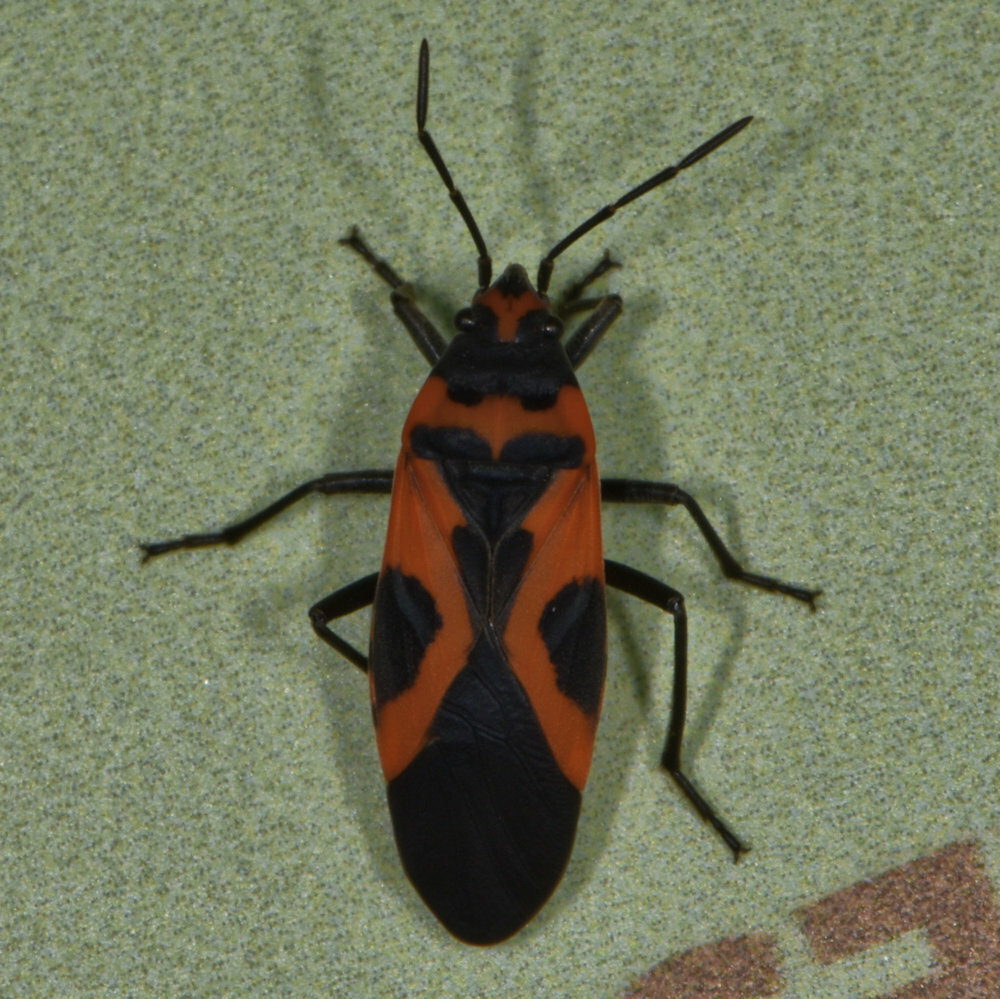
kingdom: Animalia
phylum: Arthropoda
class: Insecta
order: Hemiptera
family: Lygaeidae
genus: Lygaeus
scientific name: Lygaeus turcicus
